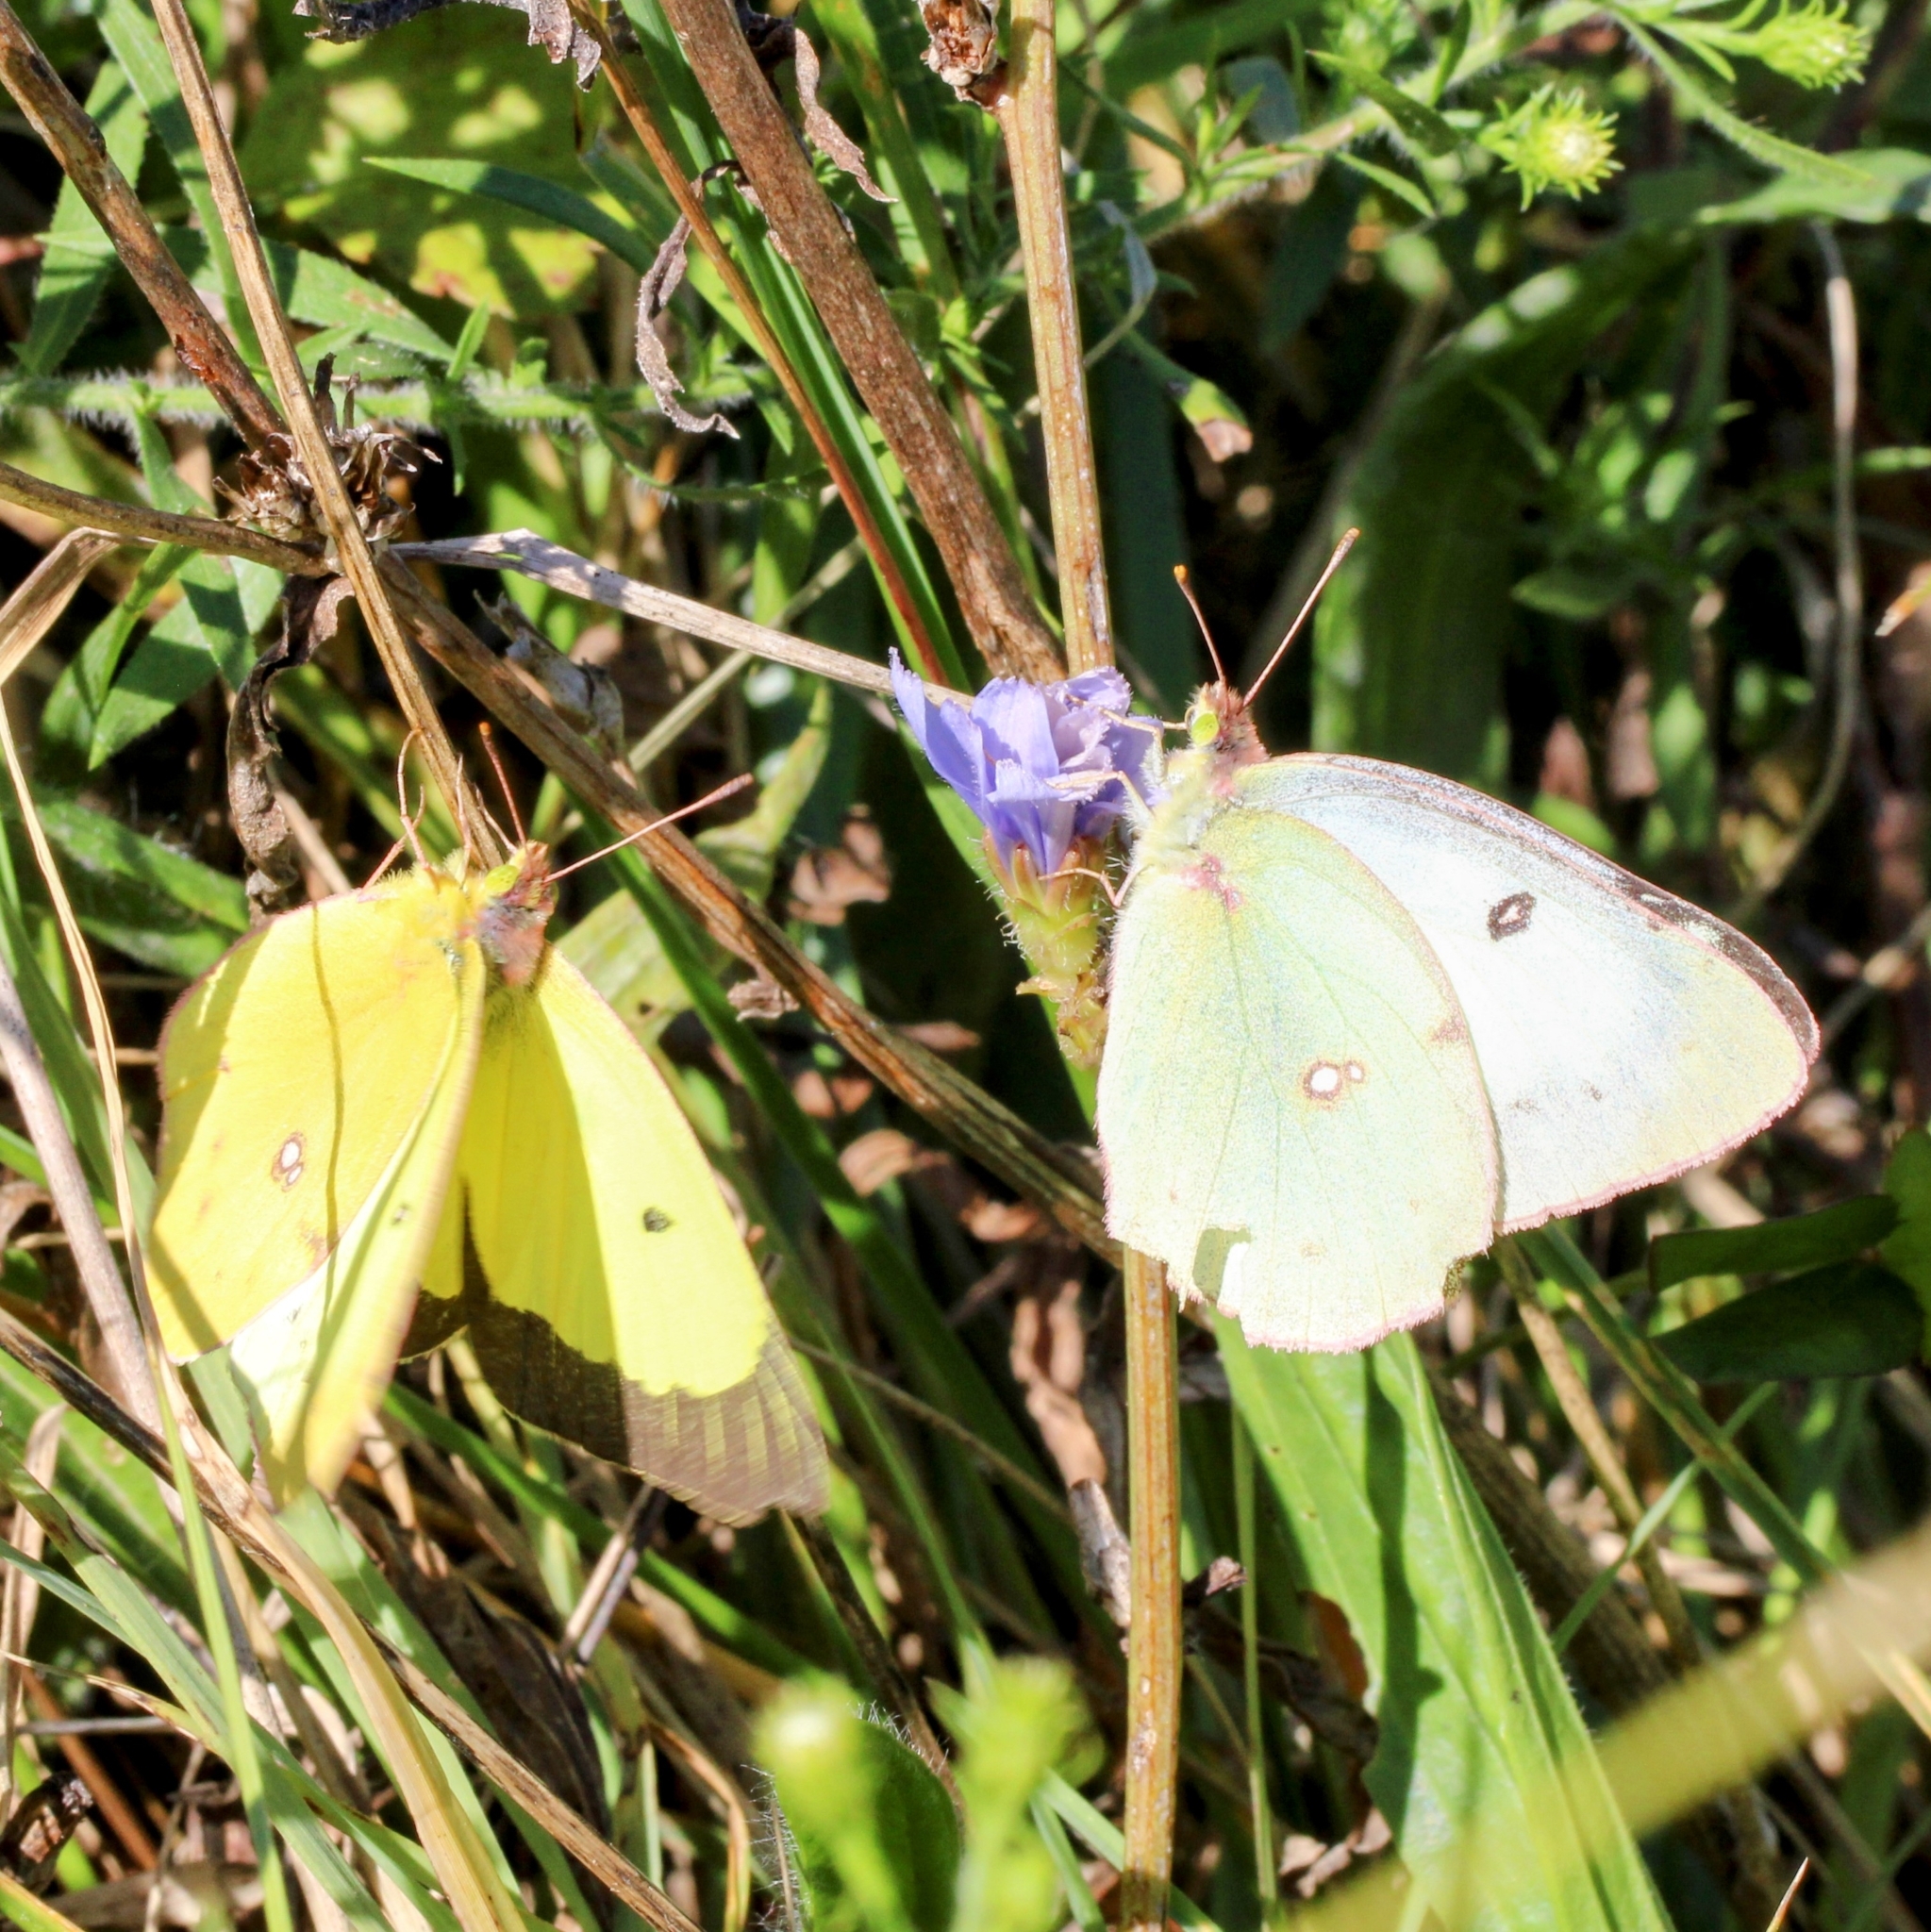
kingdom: Animalia
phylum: Arthropoda
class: Insecta
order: Lepidoptera
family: Pieridae
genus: Colias
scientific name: Colias philodice
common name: Clouded sulphur
